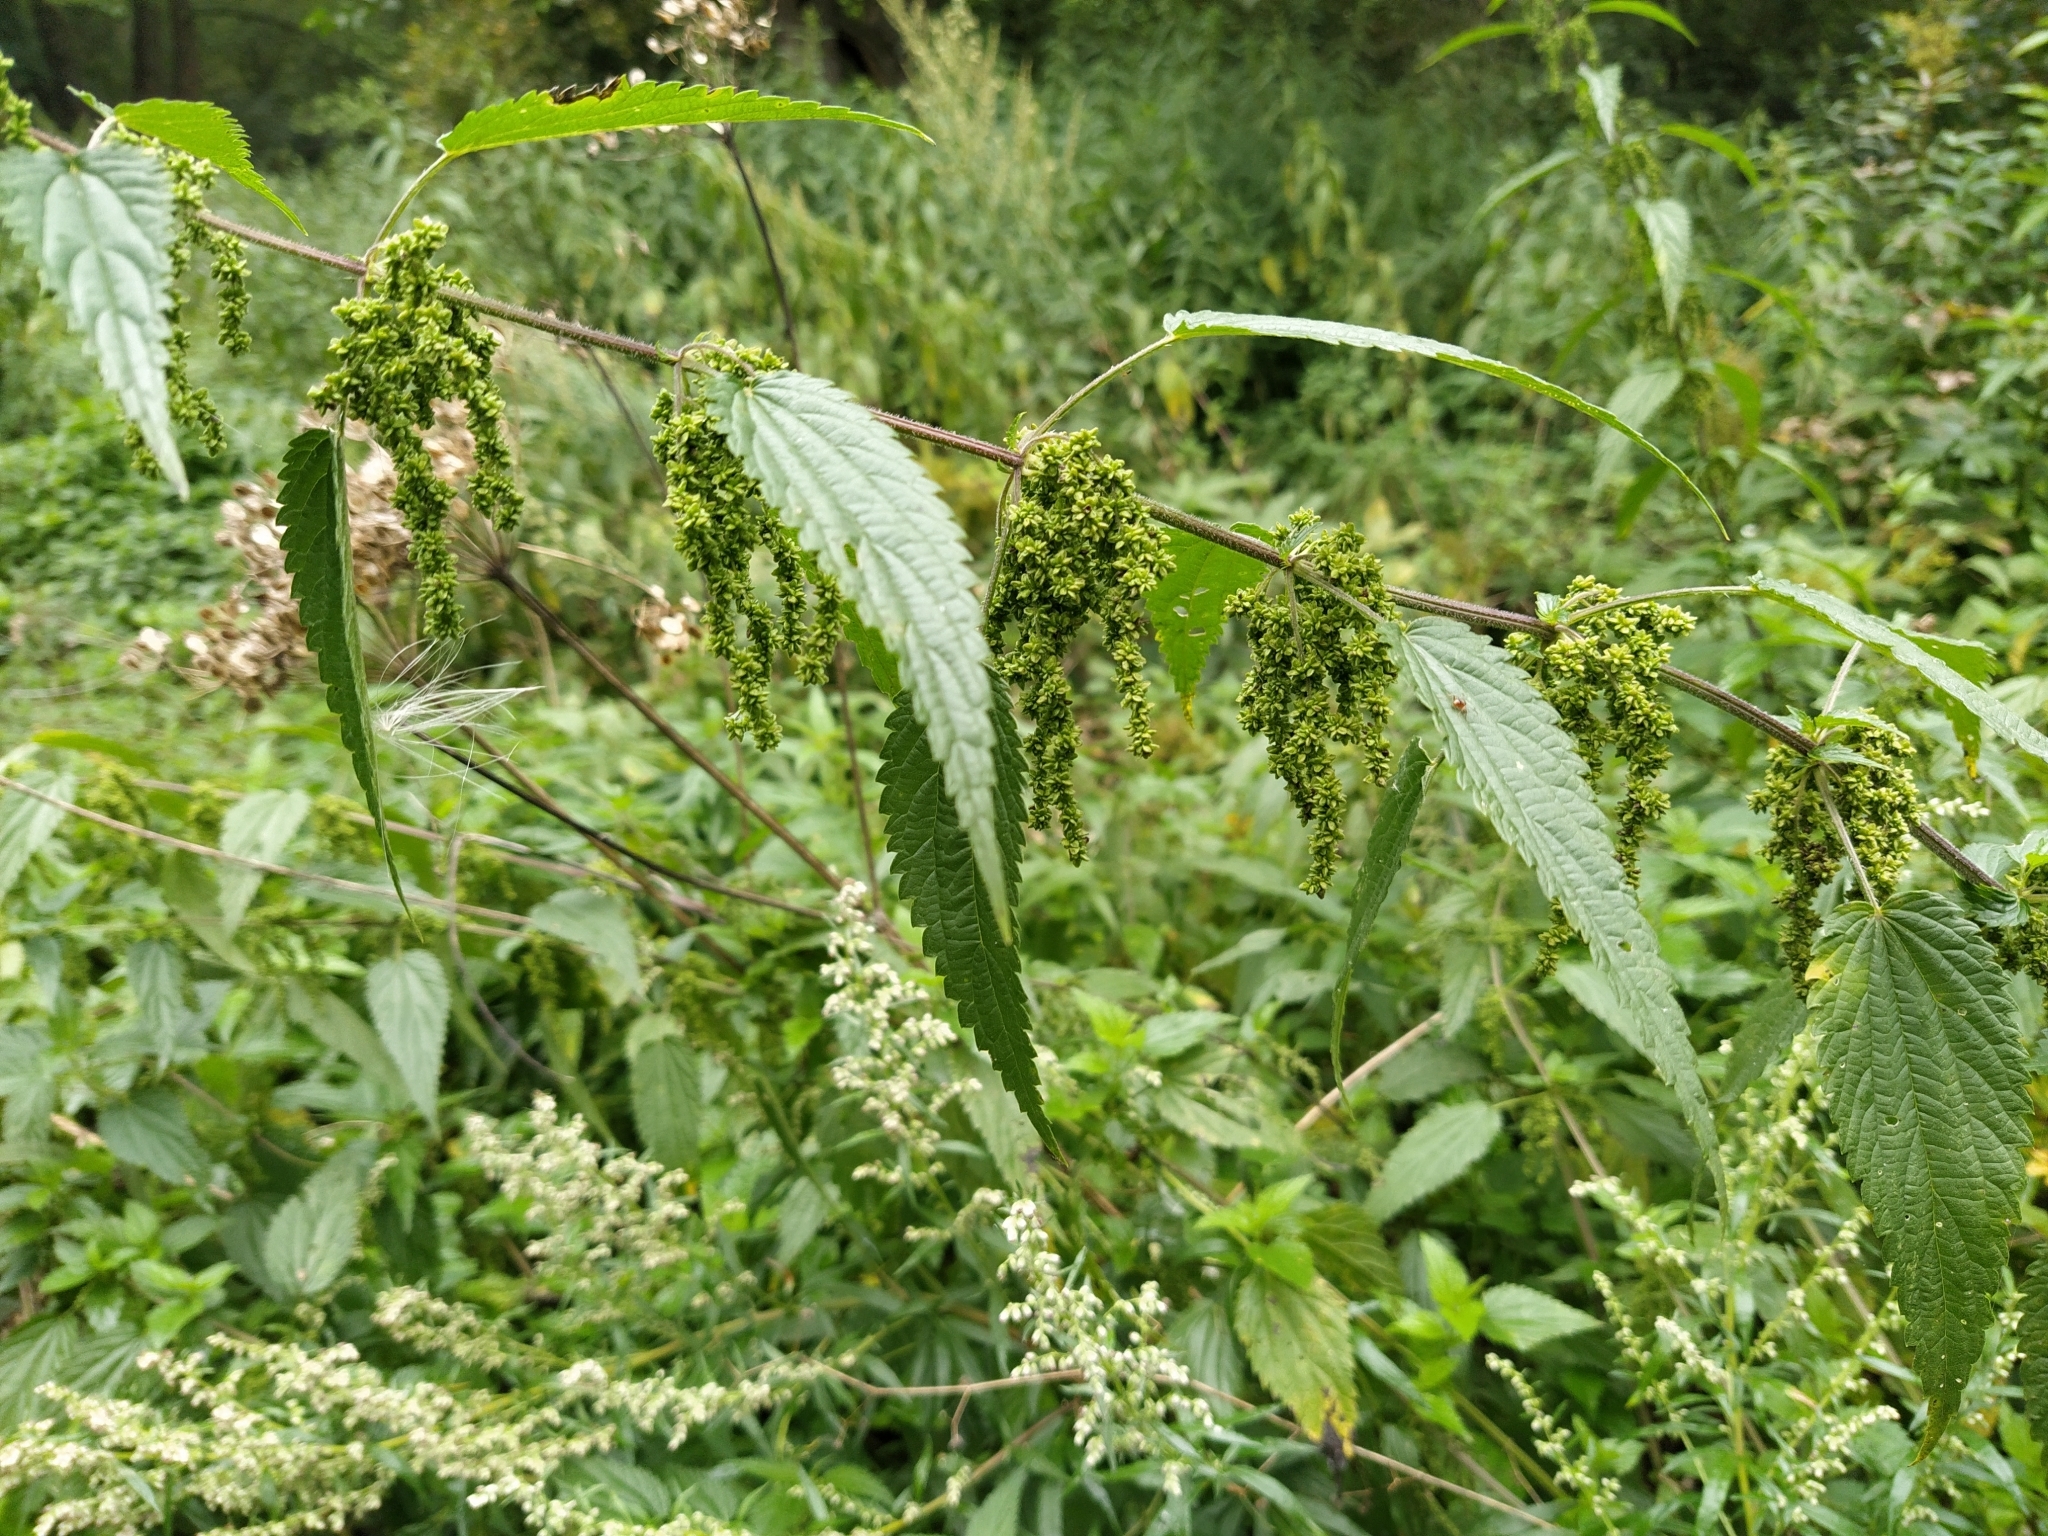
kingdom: Plantae
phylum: Tracheophyta
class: Magnoliopsida
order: Rosales
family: Urticaceae
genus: Urtica
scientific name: Urtica dioica
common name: Common nettle
